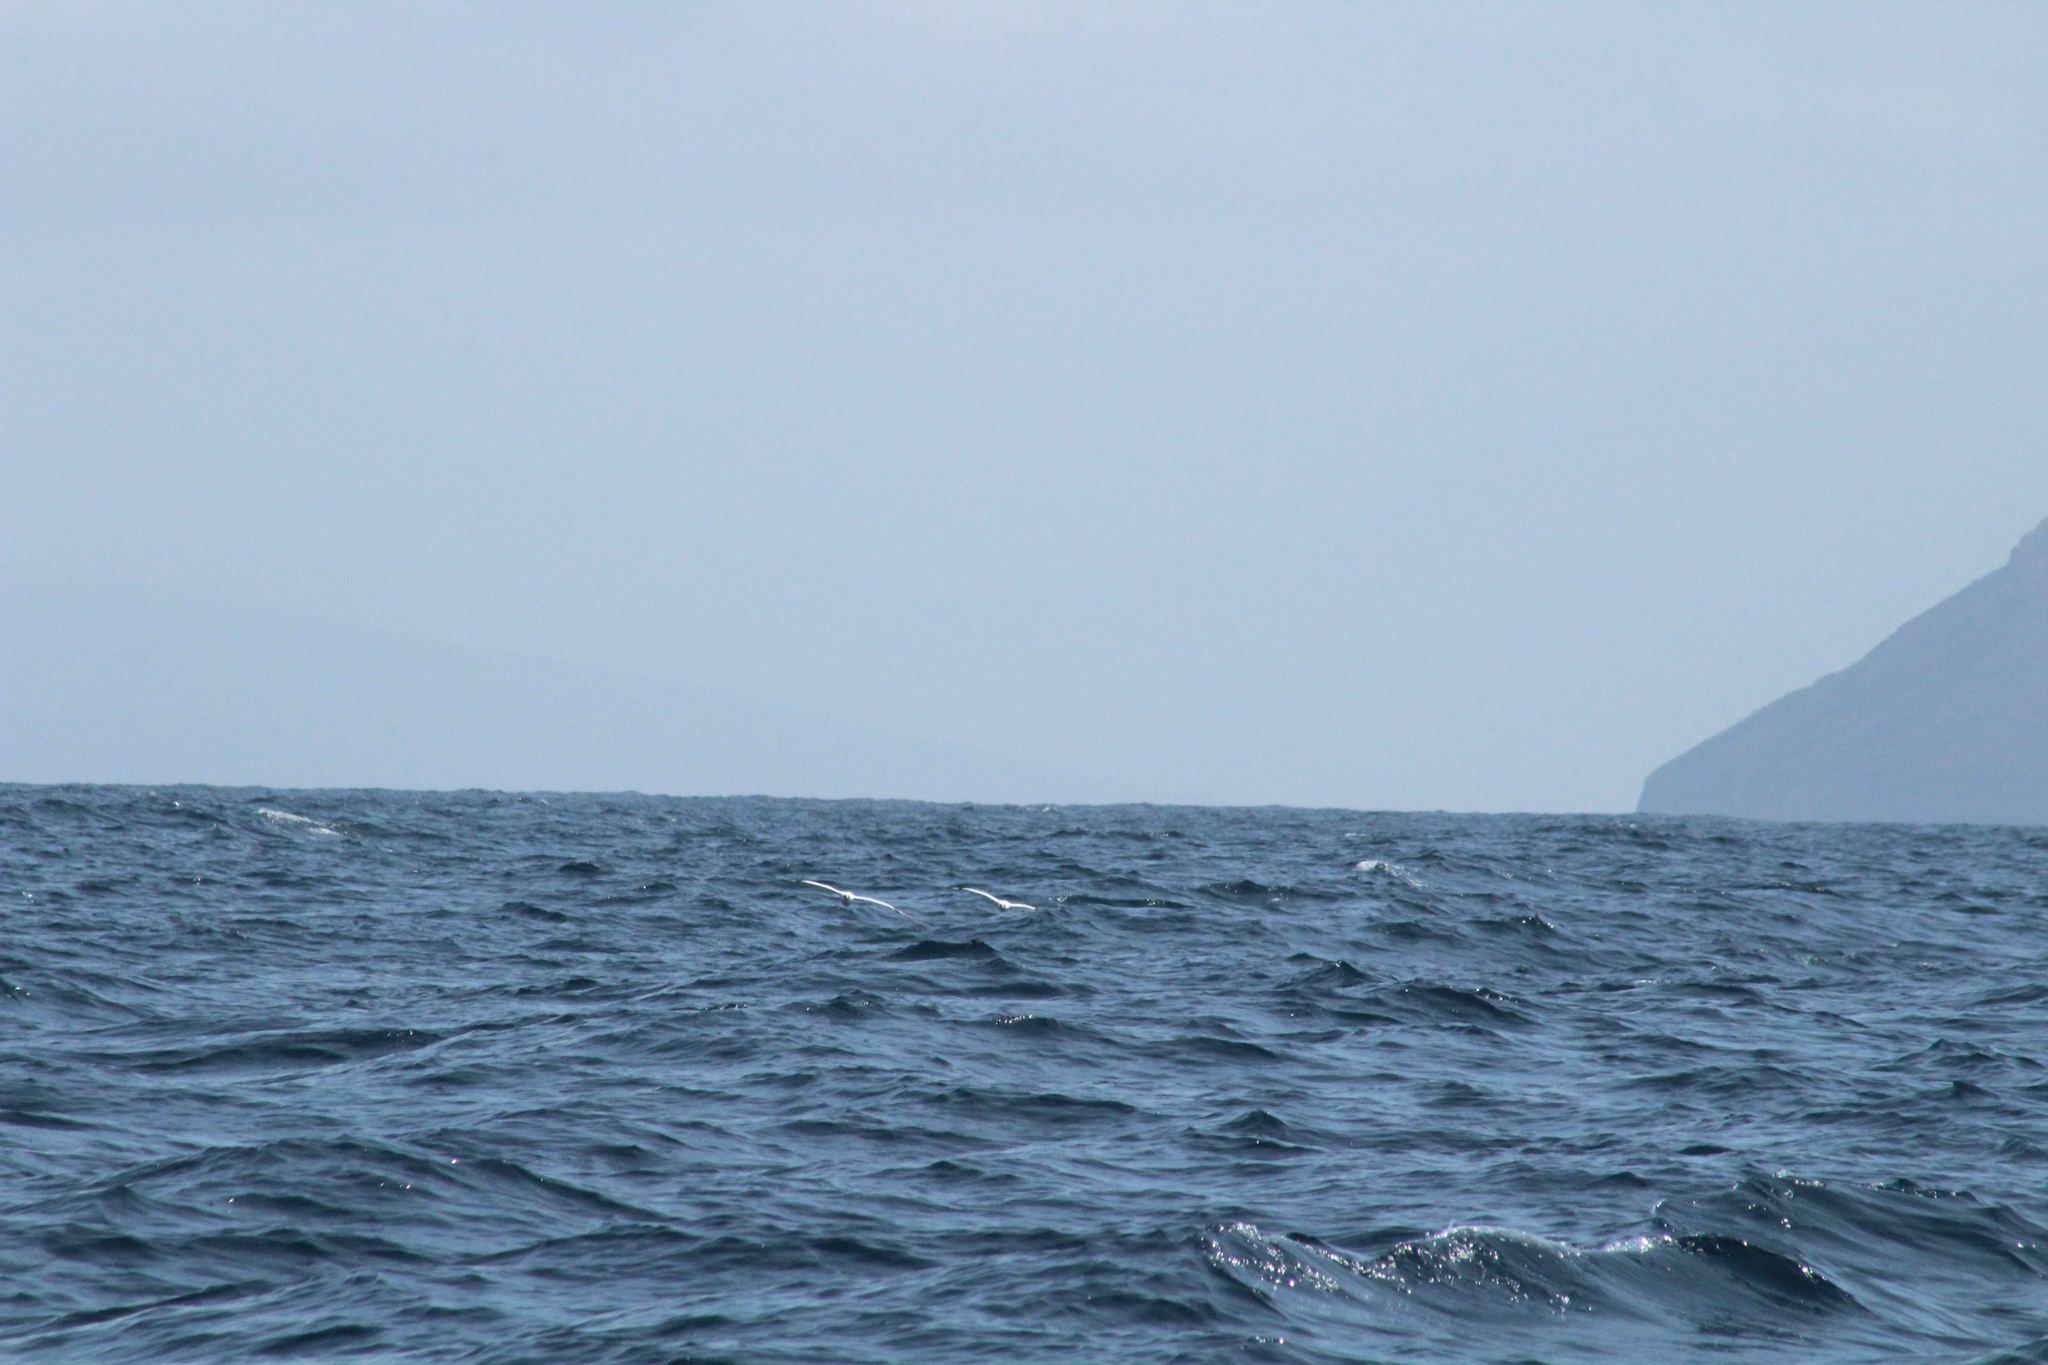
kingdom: Animalia
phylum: Chordata
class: Aves
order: Suliformes
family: Sulidae
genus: Sula
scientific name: Sula granti
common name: Nazca booby
